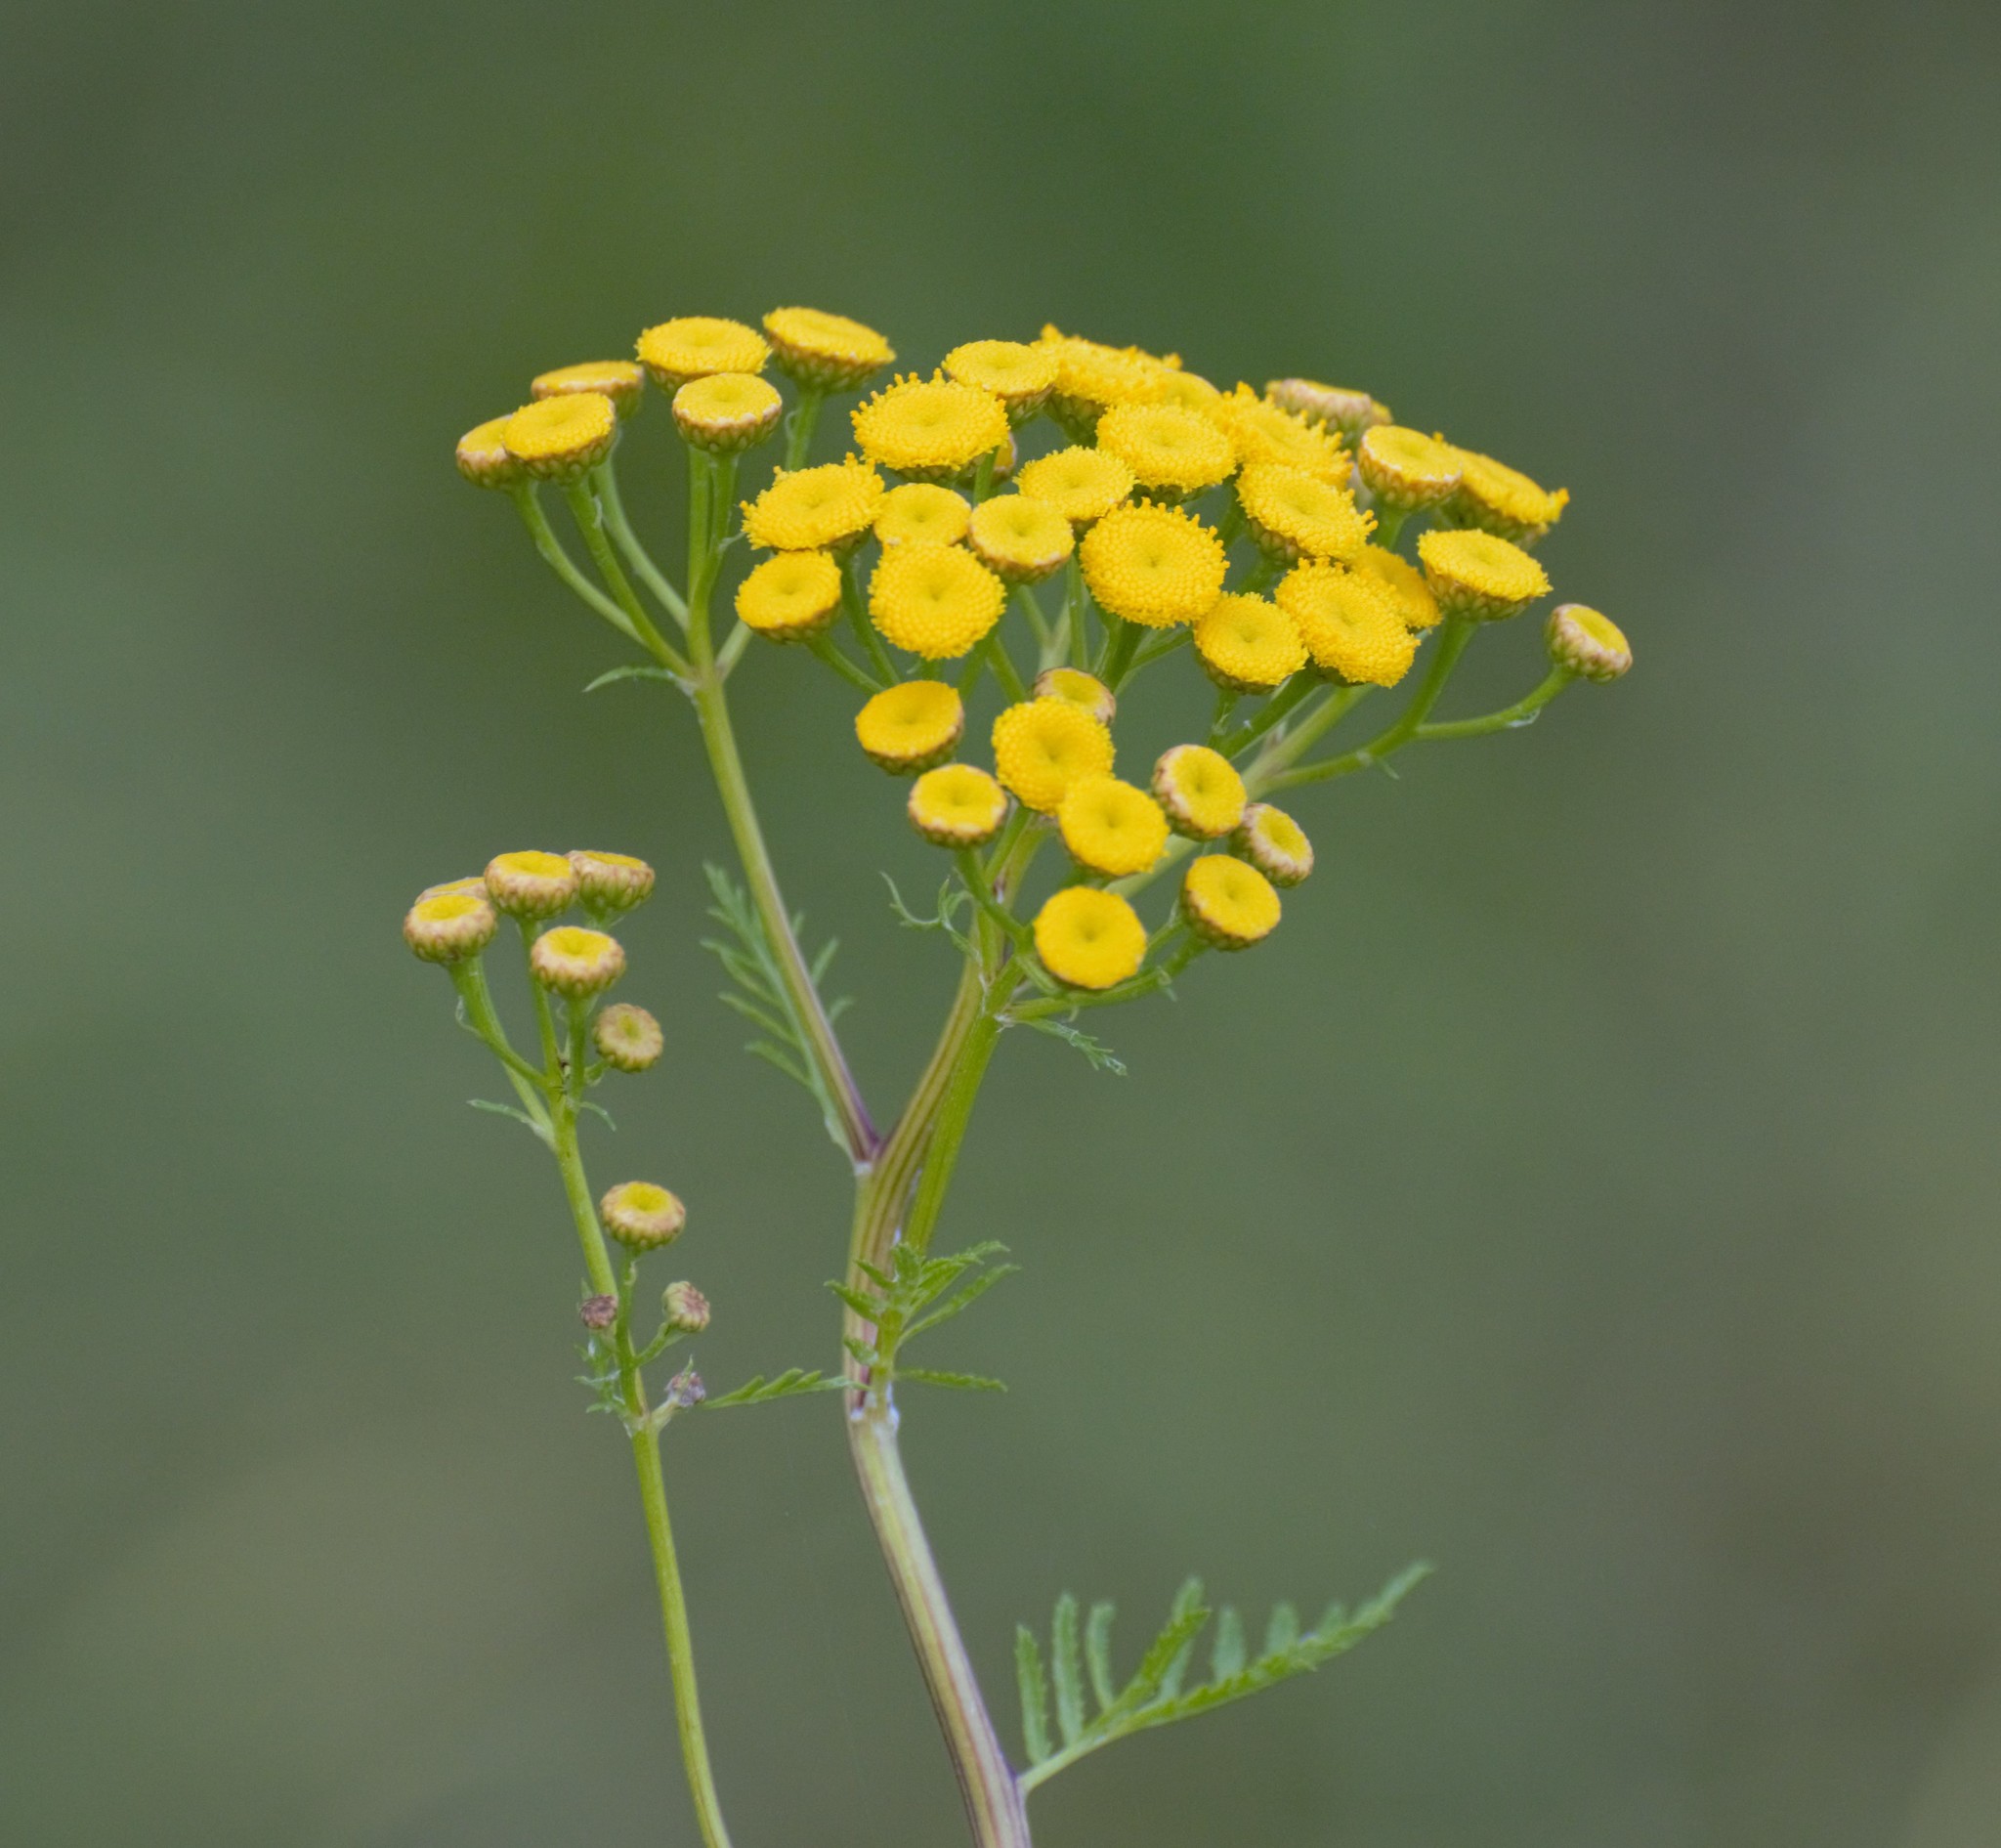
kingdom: Plantae
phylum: Tracheophyta
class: Magnoliopsida
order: Asterales
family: Asteraceae
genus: Tanacetum
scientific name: Tanacetum vulgare
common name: Common tansy
